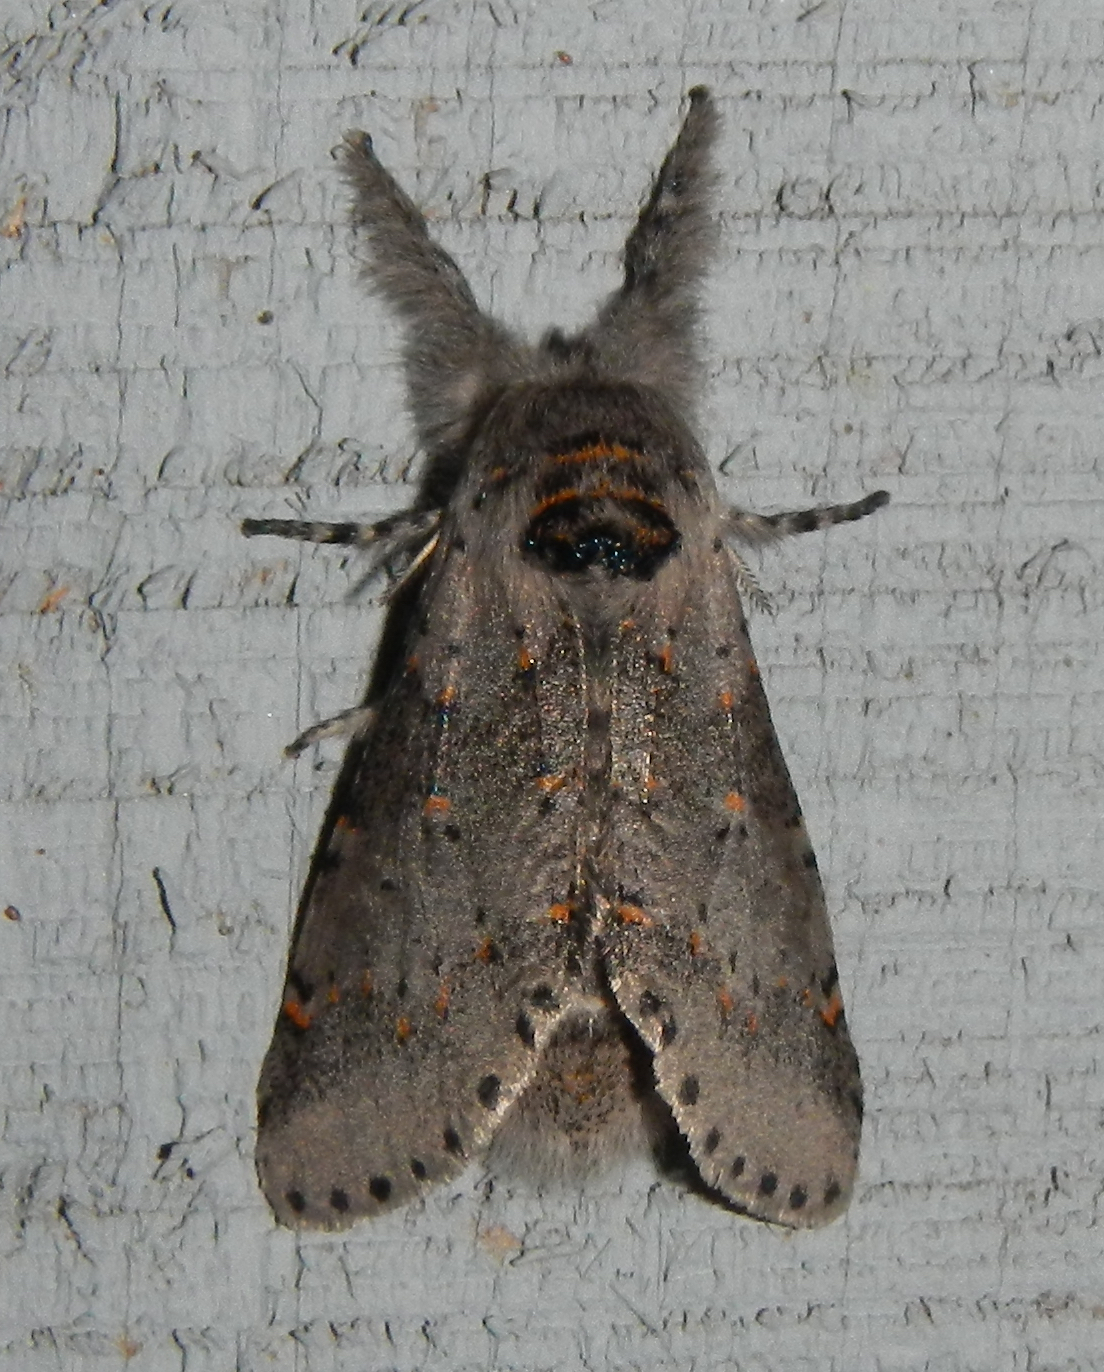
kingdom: Animalia
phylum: Arthropoda
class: Insecta
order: Lepidoptera
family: Notodontidae
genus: Furcula
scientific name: Furcula cinerea
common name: Gray furcula
